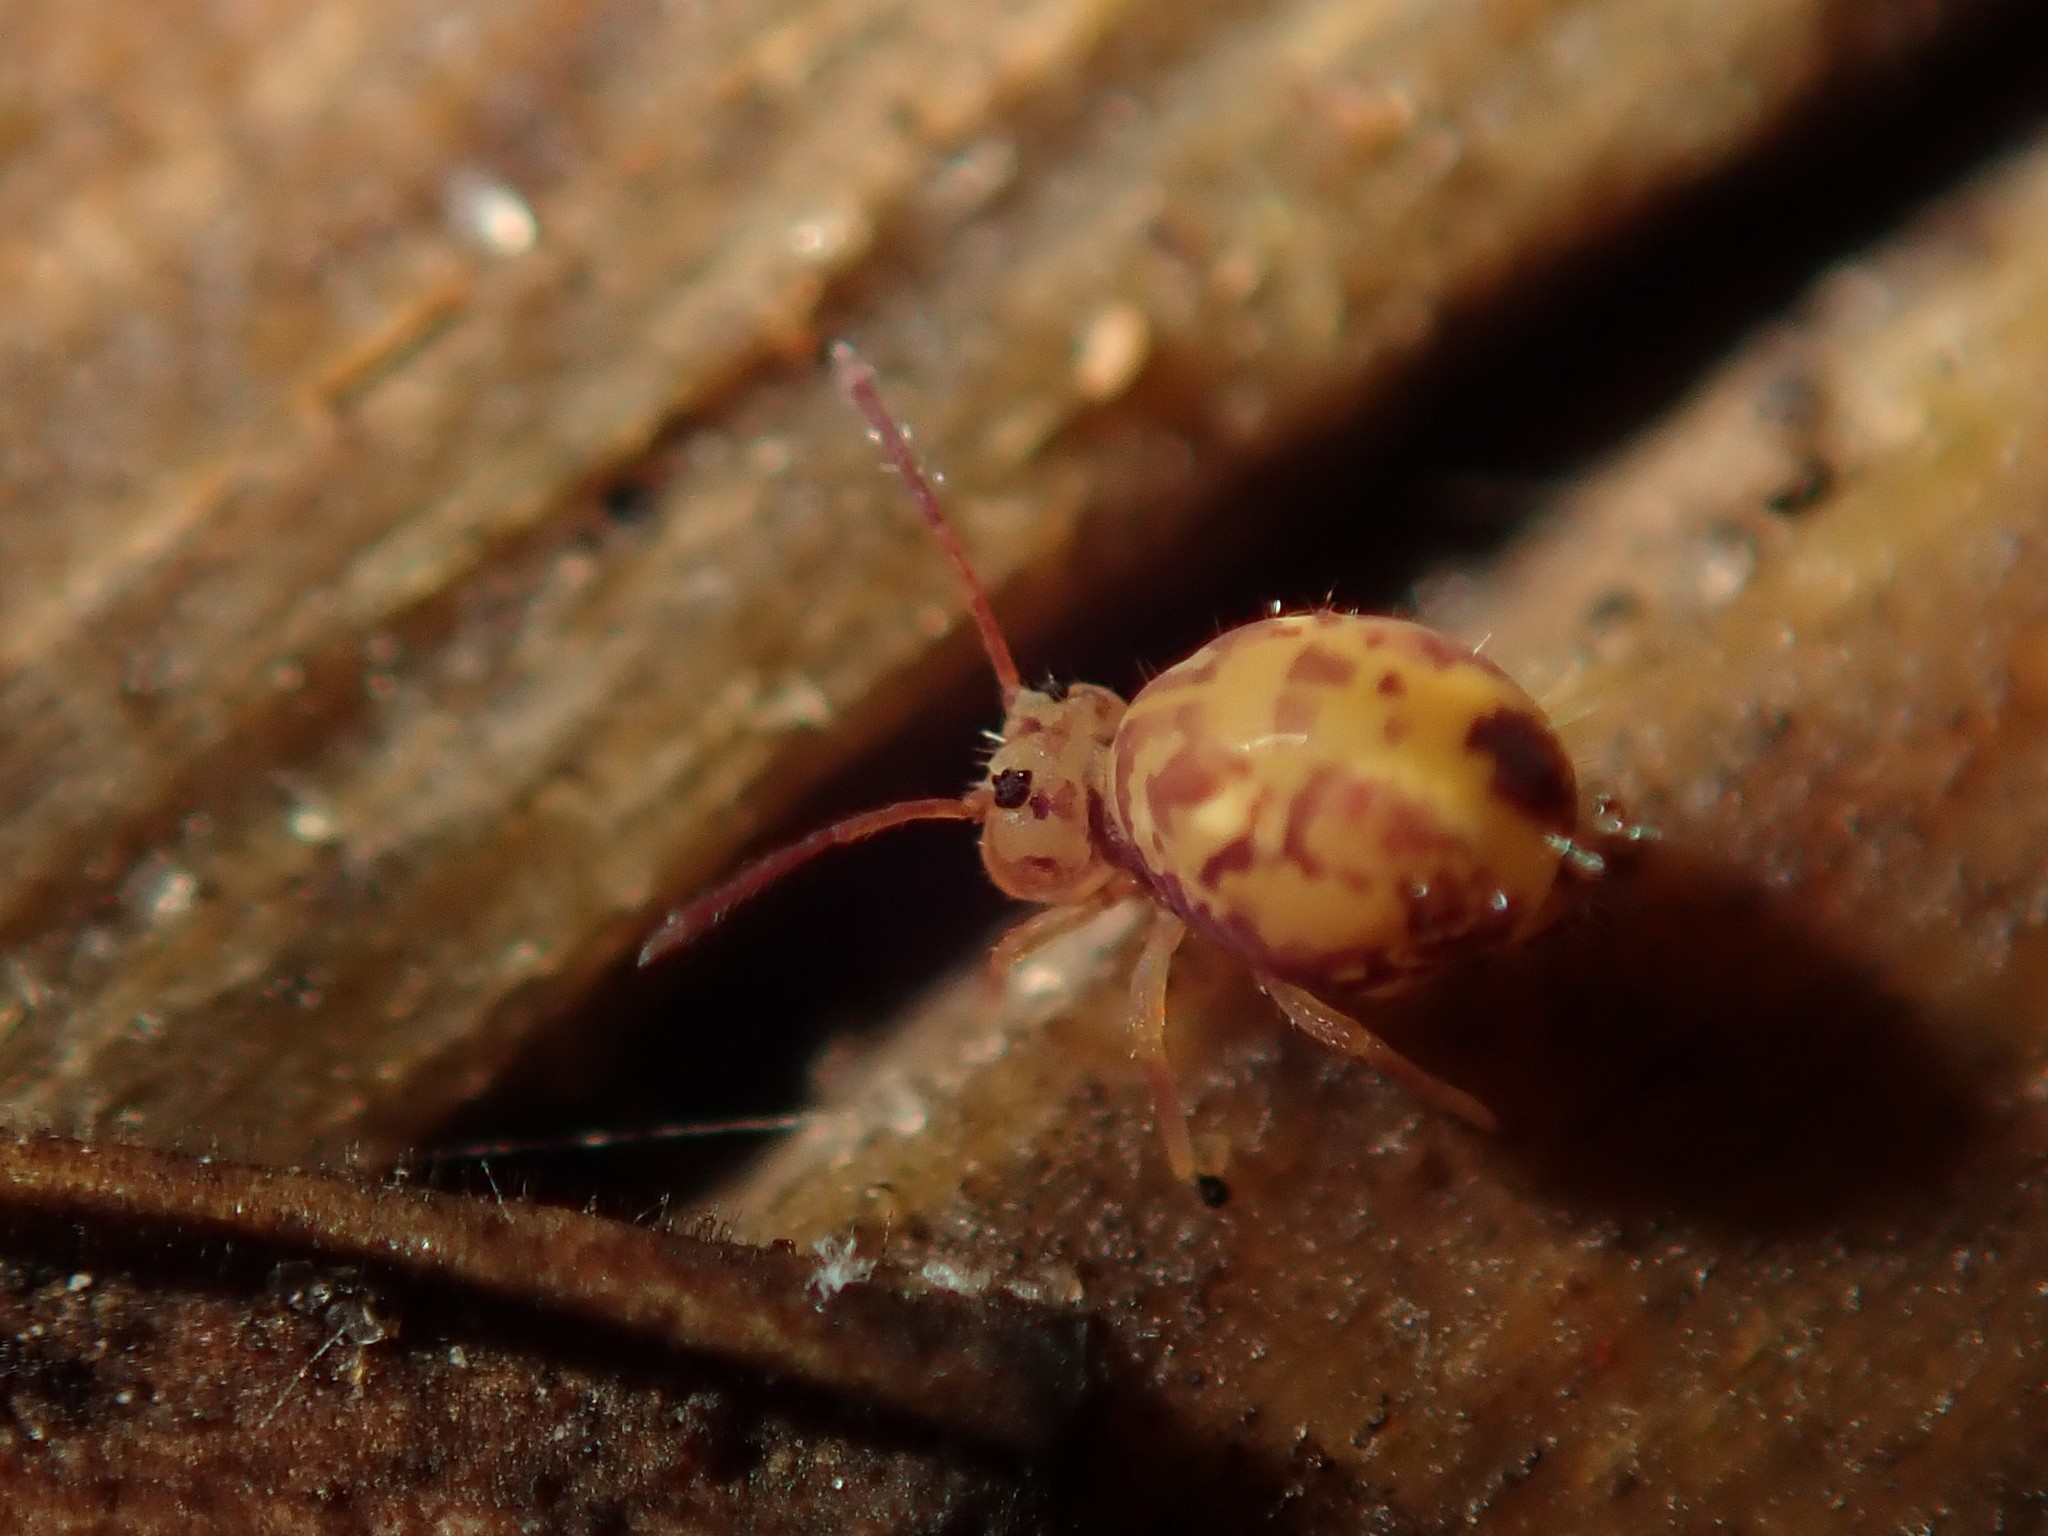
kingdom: Animalia
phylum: Arthropoda
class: Collembola
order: Symphypleona
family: Dicyrtomidae
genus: Dicyrtomina
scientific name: Dicyrtomina ornata
